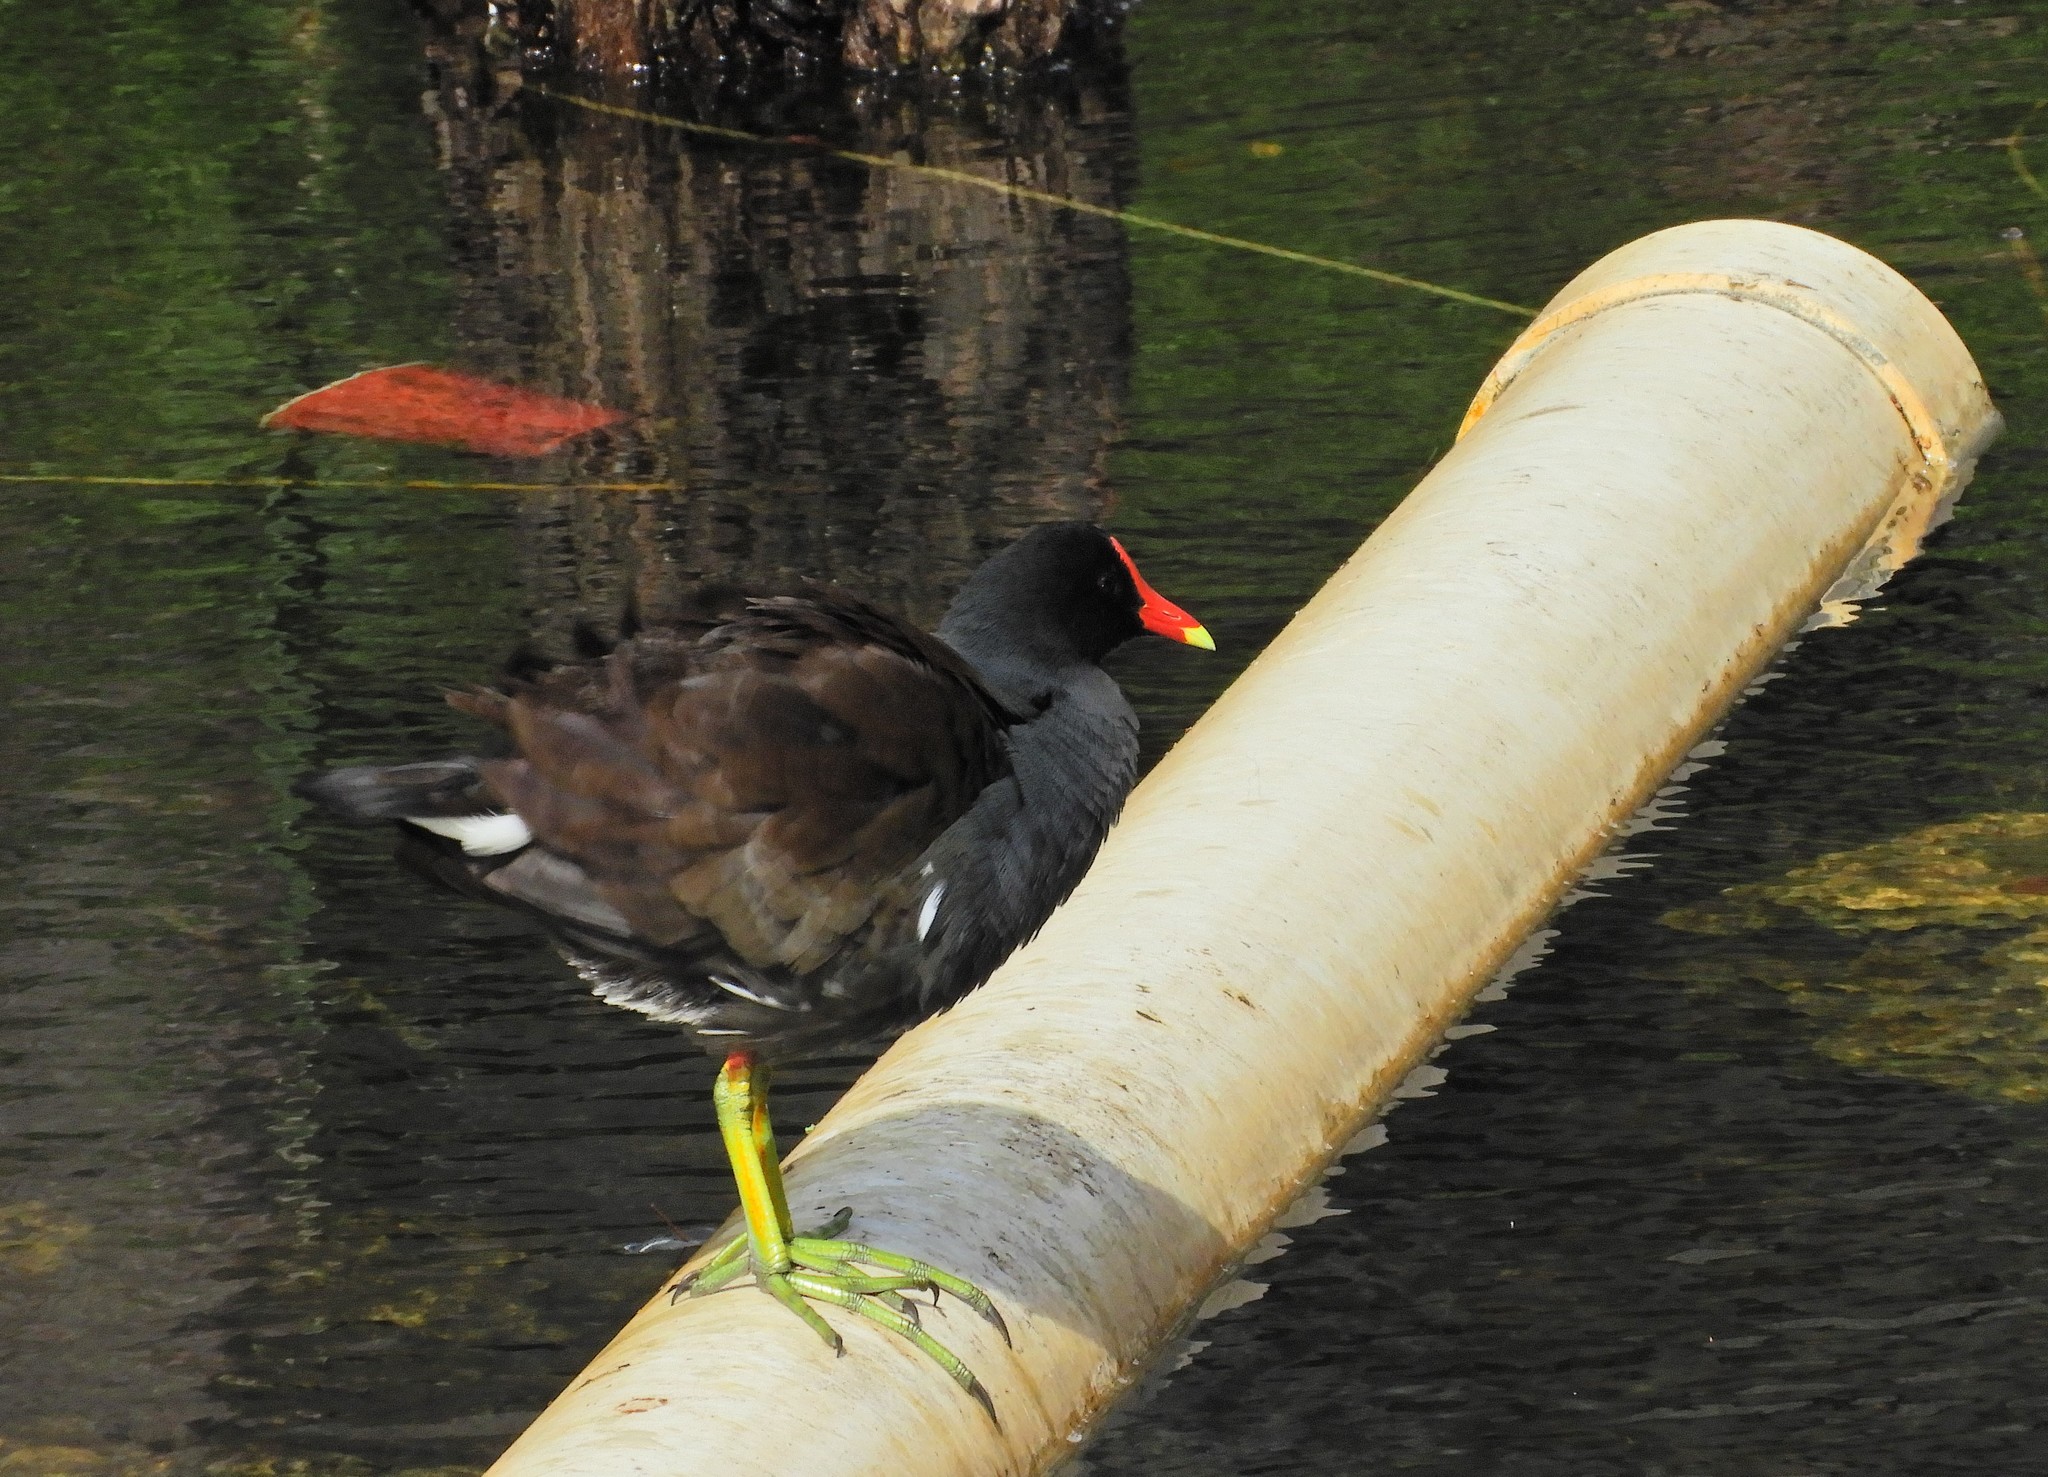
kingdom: Animalia
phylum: Chordata
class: Aves
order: Gruiformes
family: Rallidae
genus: Gallinula
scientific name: Gallinula chloropus
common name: Common moorhen
